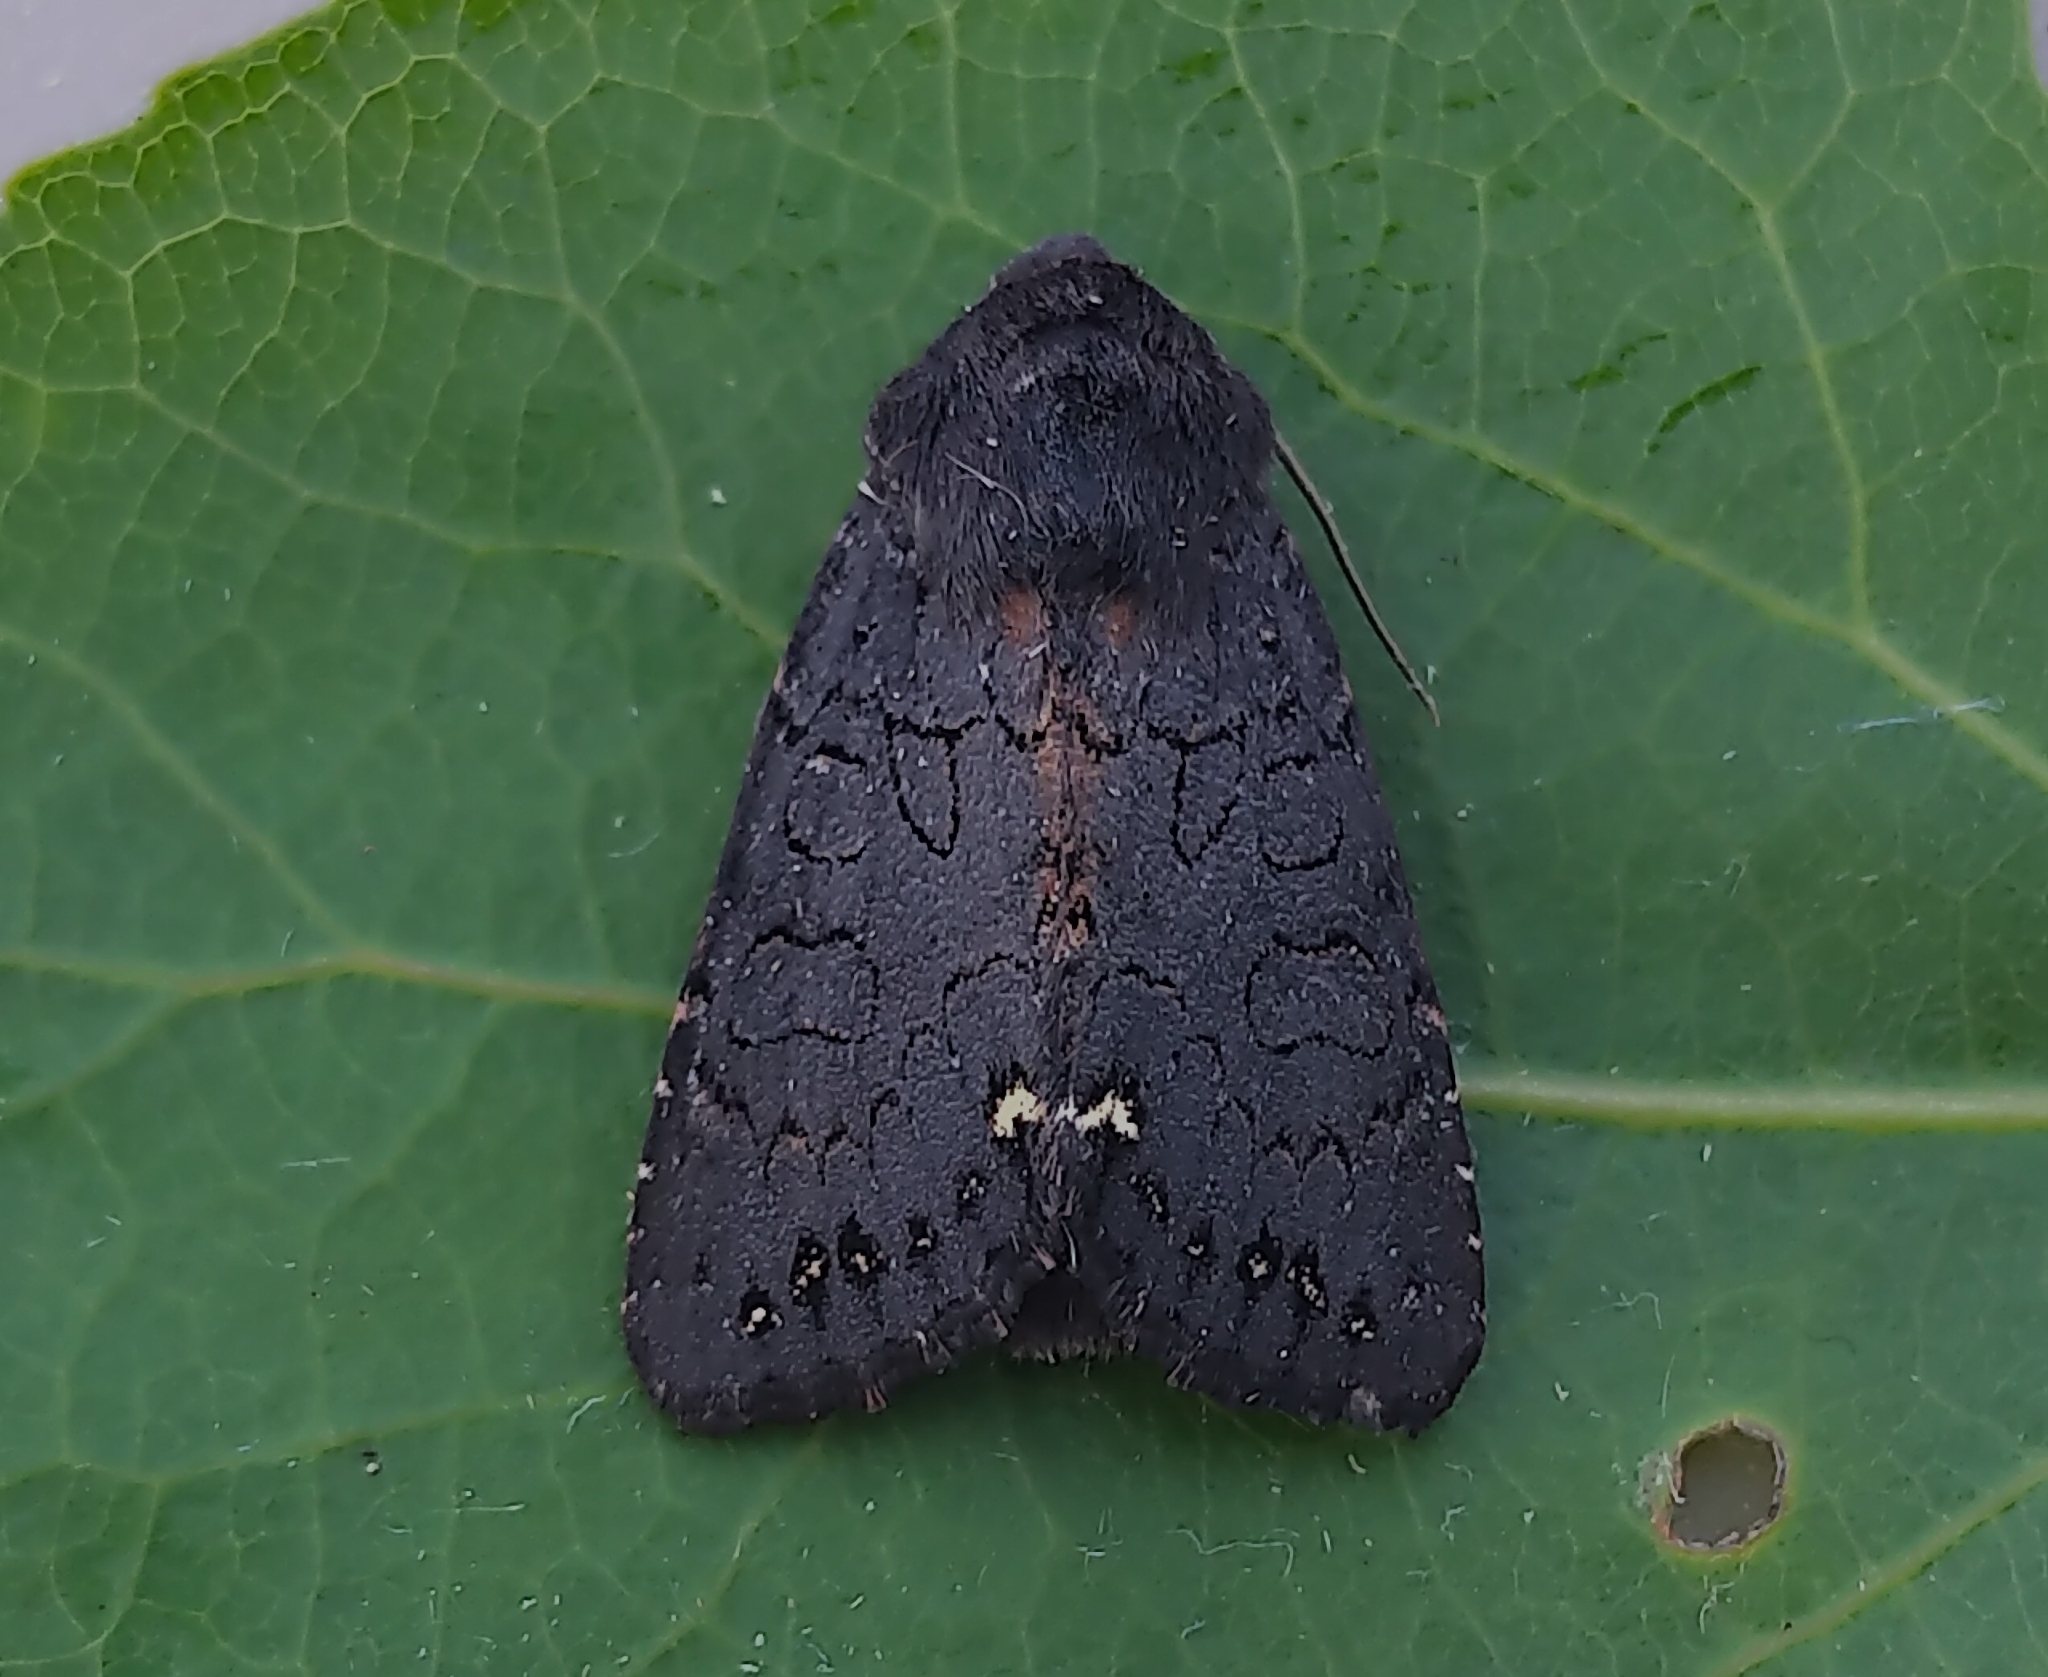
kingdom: Animalia
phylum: Arthropoda
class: Insecta
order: Lepidoptera
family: Noctuidae
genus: Melanchra
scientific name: Melanchra assimilis
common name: Black arches
